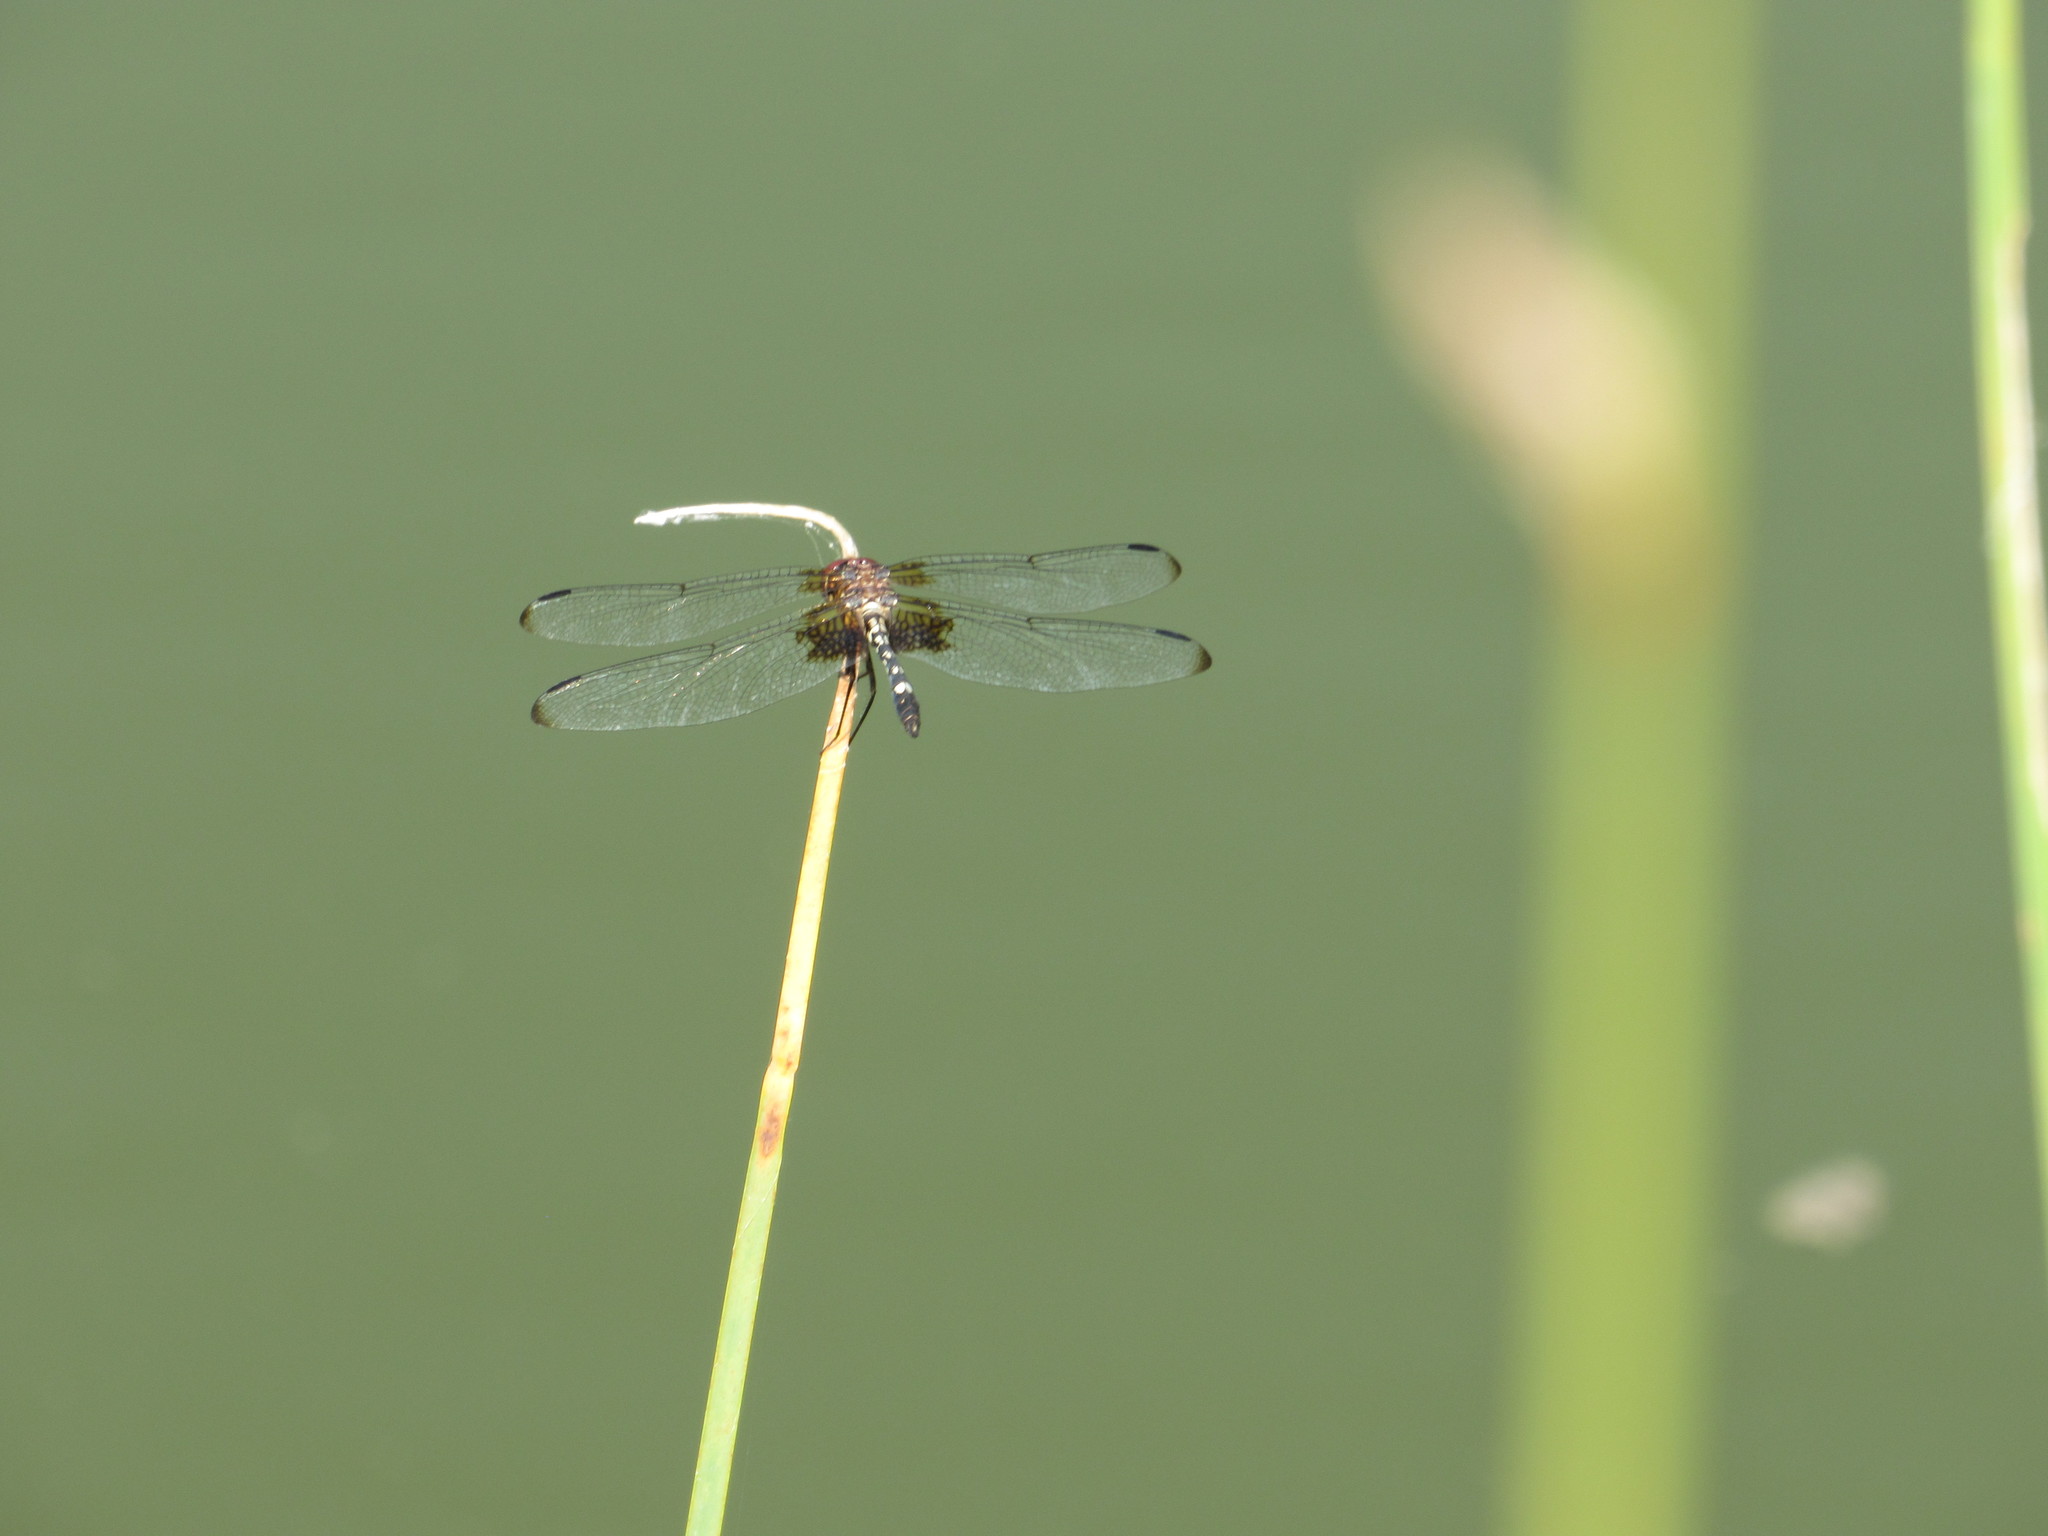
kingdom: Animalia
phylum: Arthropoda
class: Insecta
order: Odonata
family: Libellulidae
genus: Dythemis
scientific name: Dythemis fugax
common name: Checkered setwing
